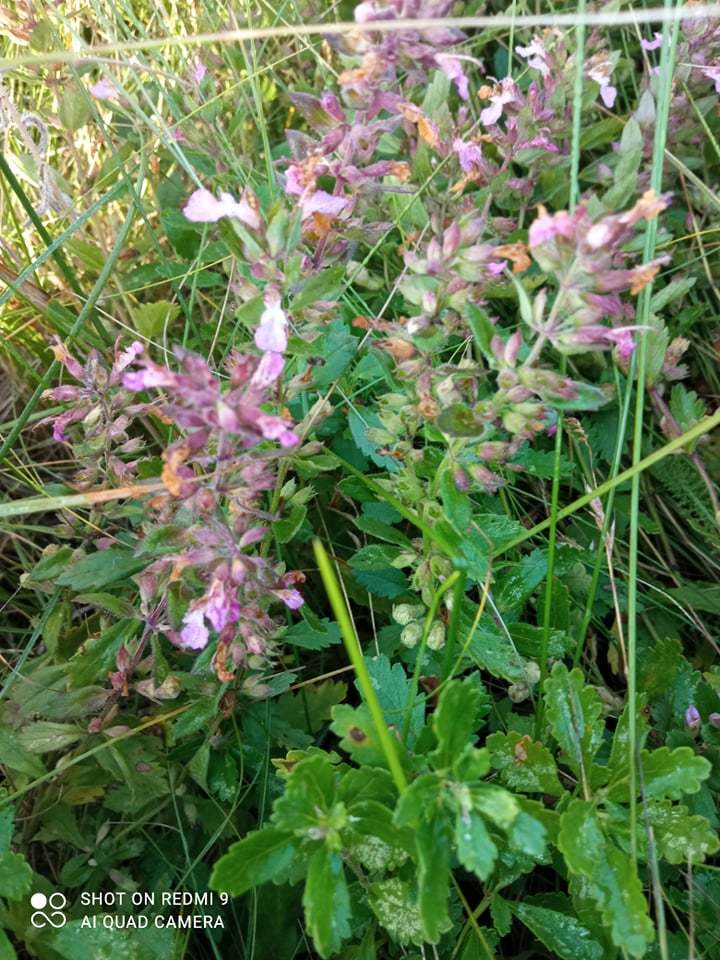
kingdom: Plantae
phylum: Tracheophyta
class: Magnoliopsida
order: Lamiales
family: Lamiaceae
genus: Teucrium
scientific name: Teucrium chamaedrys
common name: Wall germander
